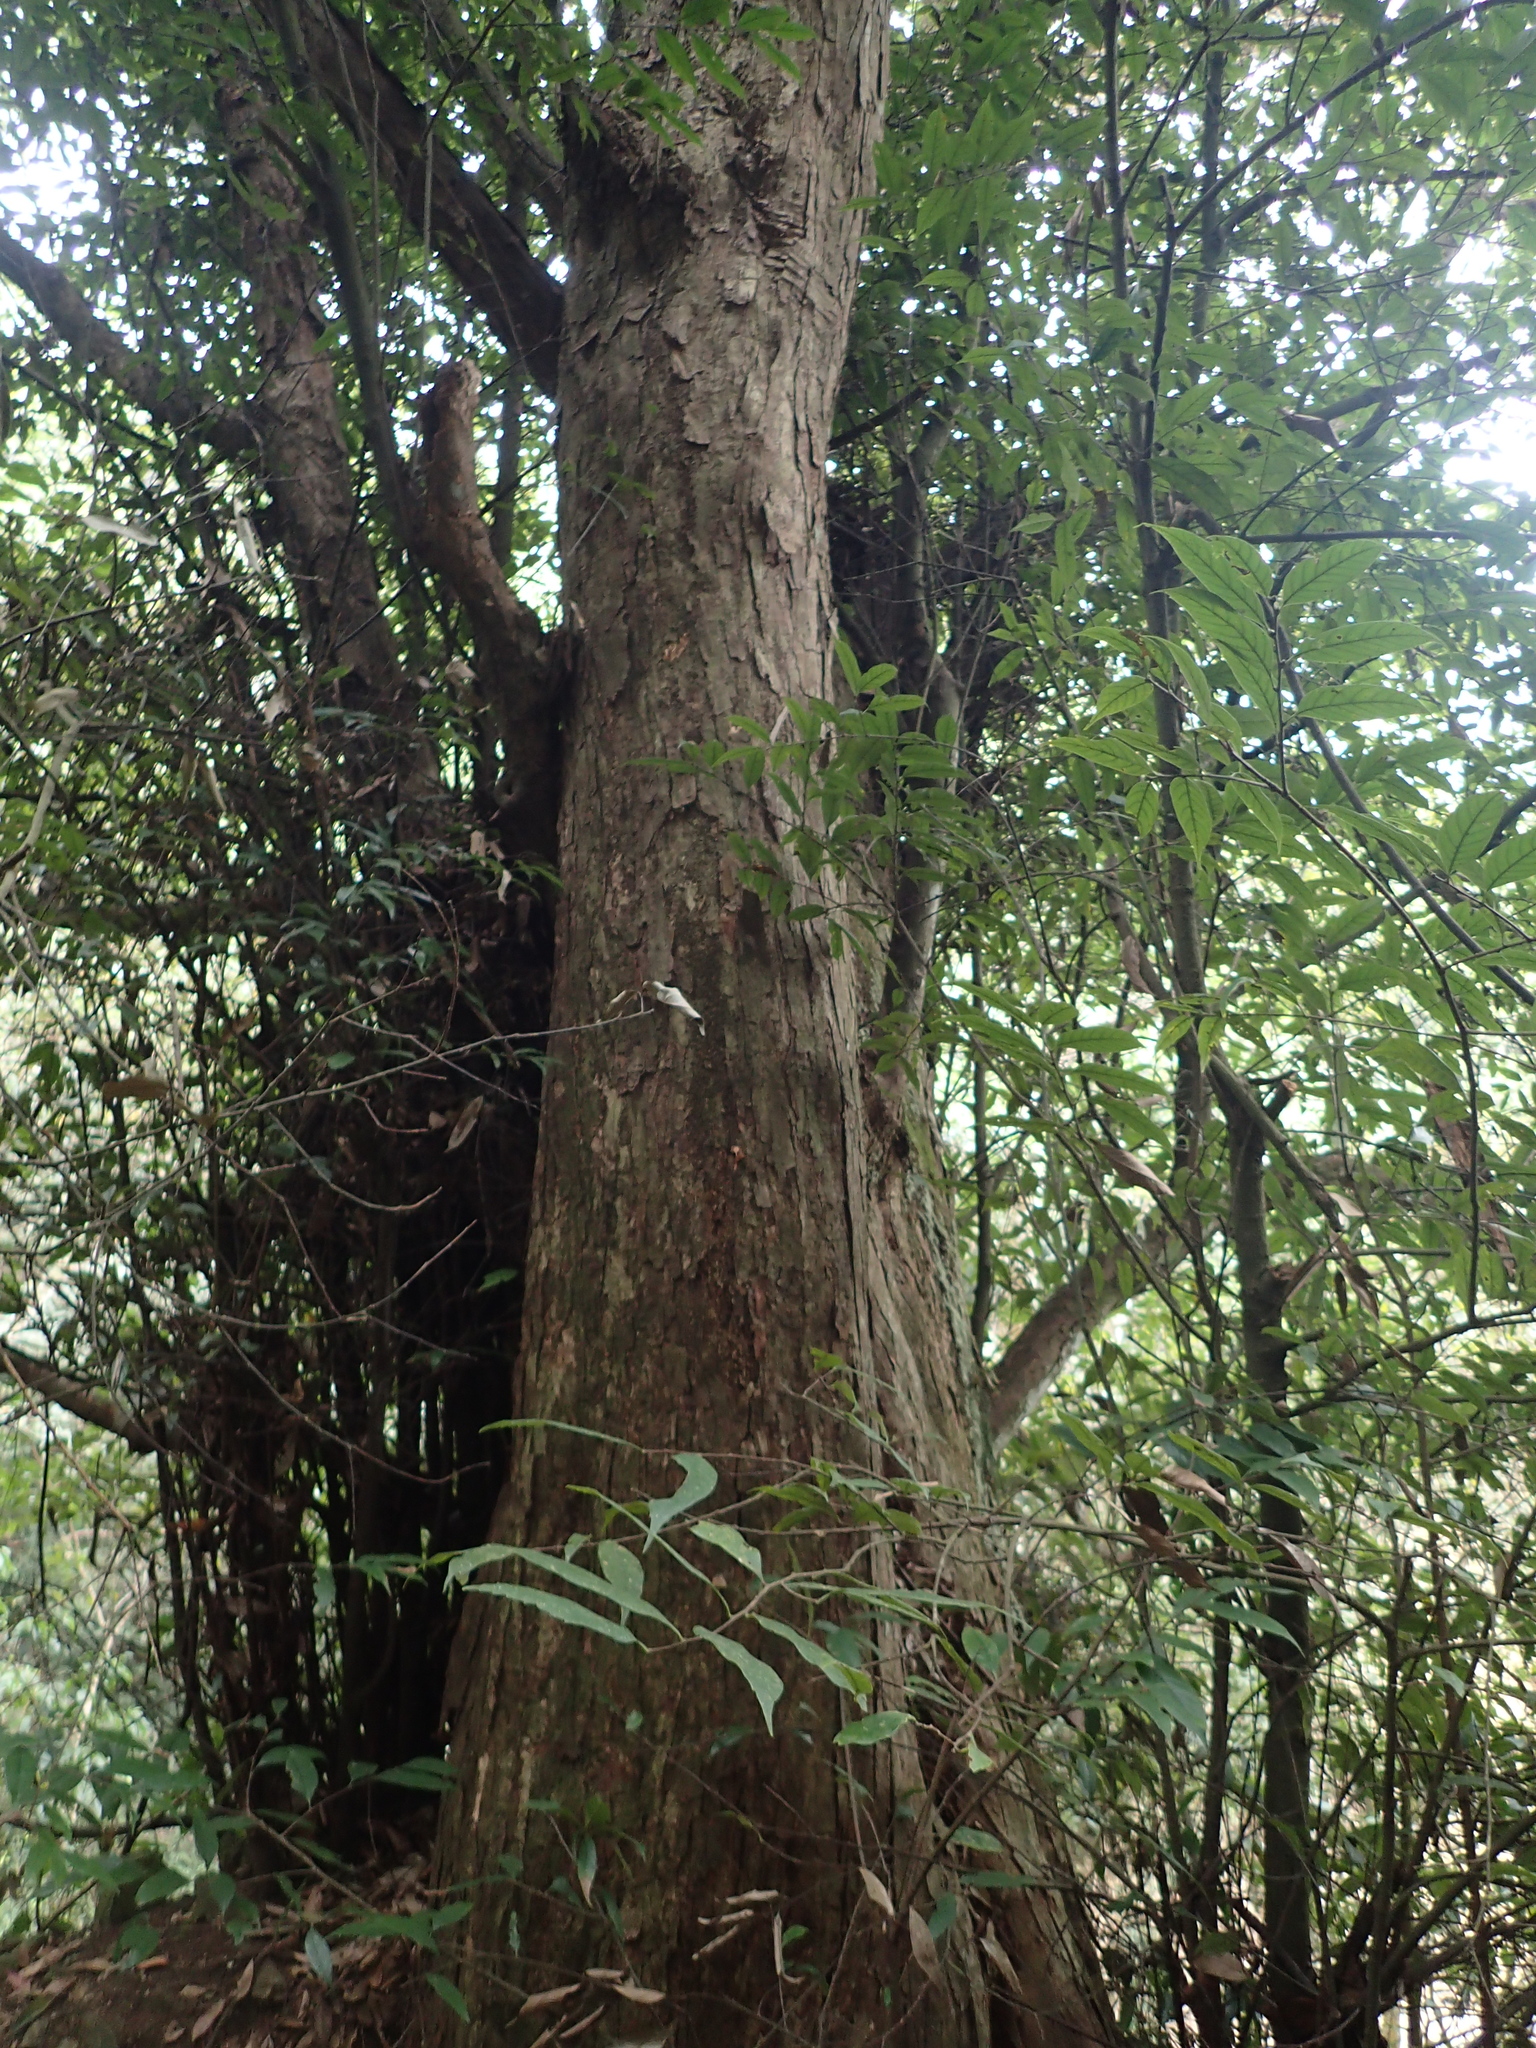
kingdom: Plantae
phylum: Tracheophyta
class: Magnoliopsida
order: Fagales
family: Fagaceae
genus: Lithocarpus
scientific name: Lithocarpus uraianus
